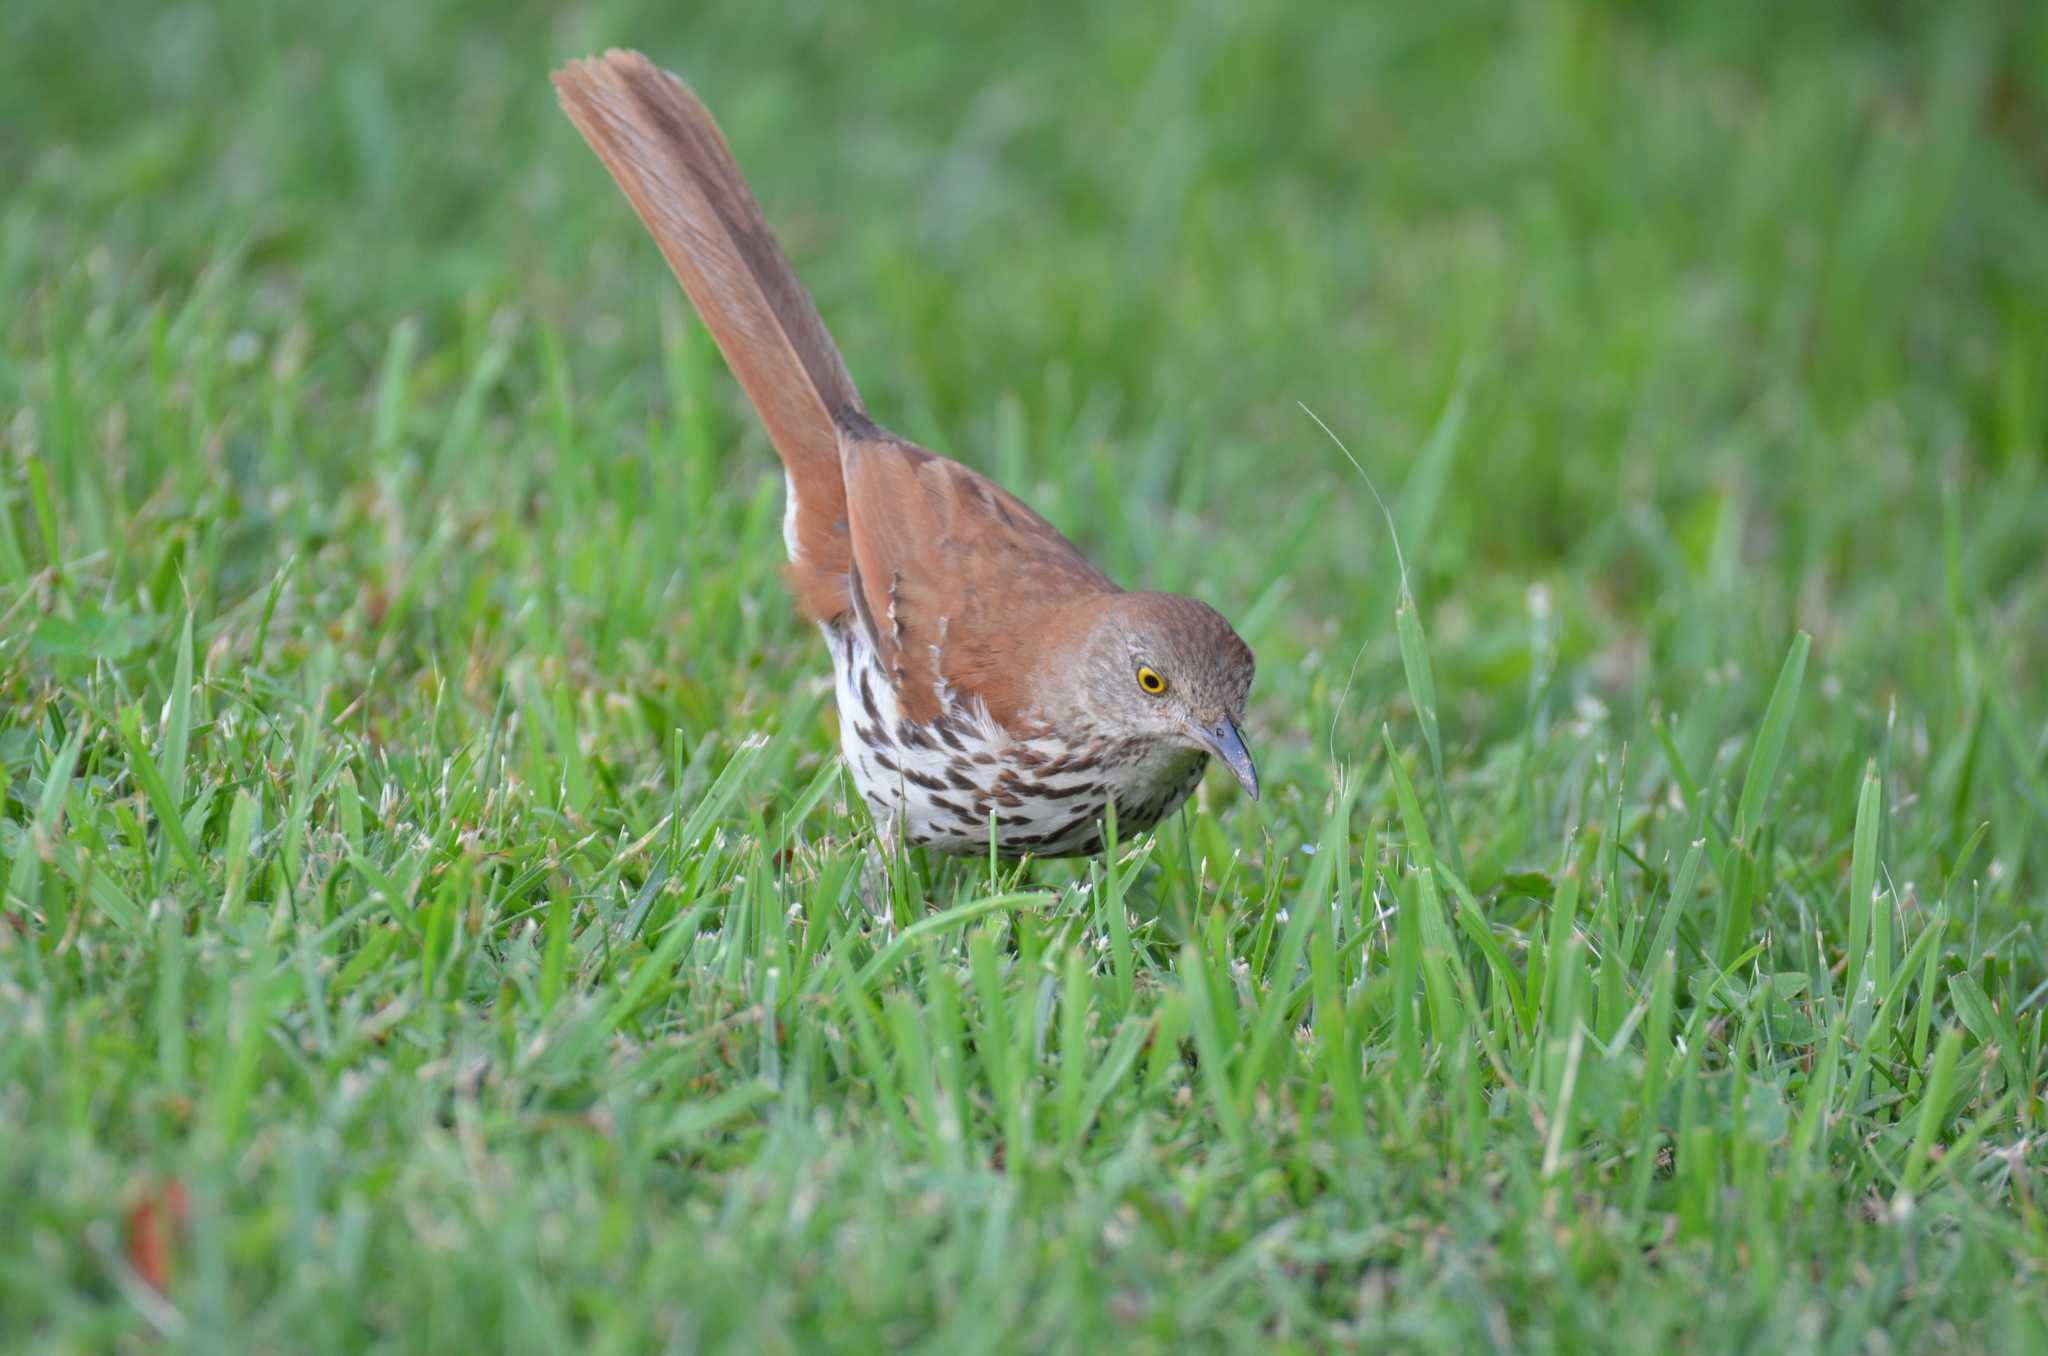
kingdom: Animalia
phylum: Chordata
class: Aves
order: Passeriformes
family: Mimidae
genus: Toxostoma
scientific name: Toxostoma rufum
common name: Brown thrasher
